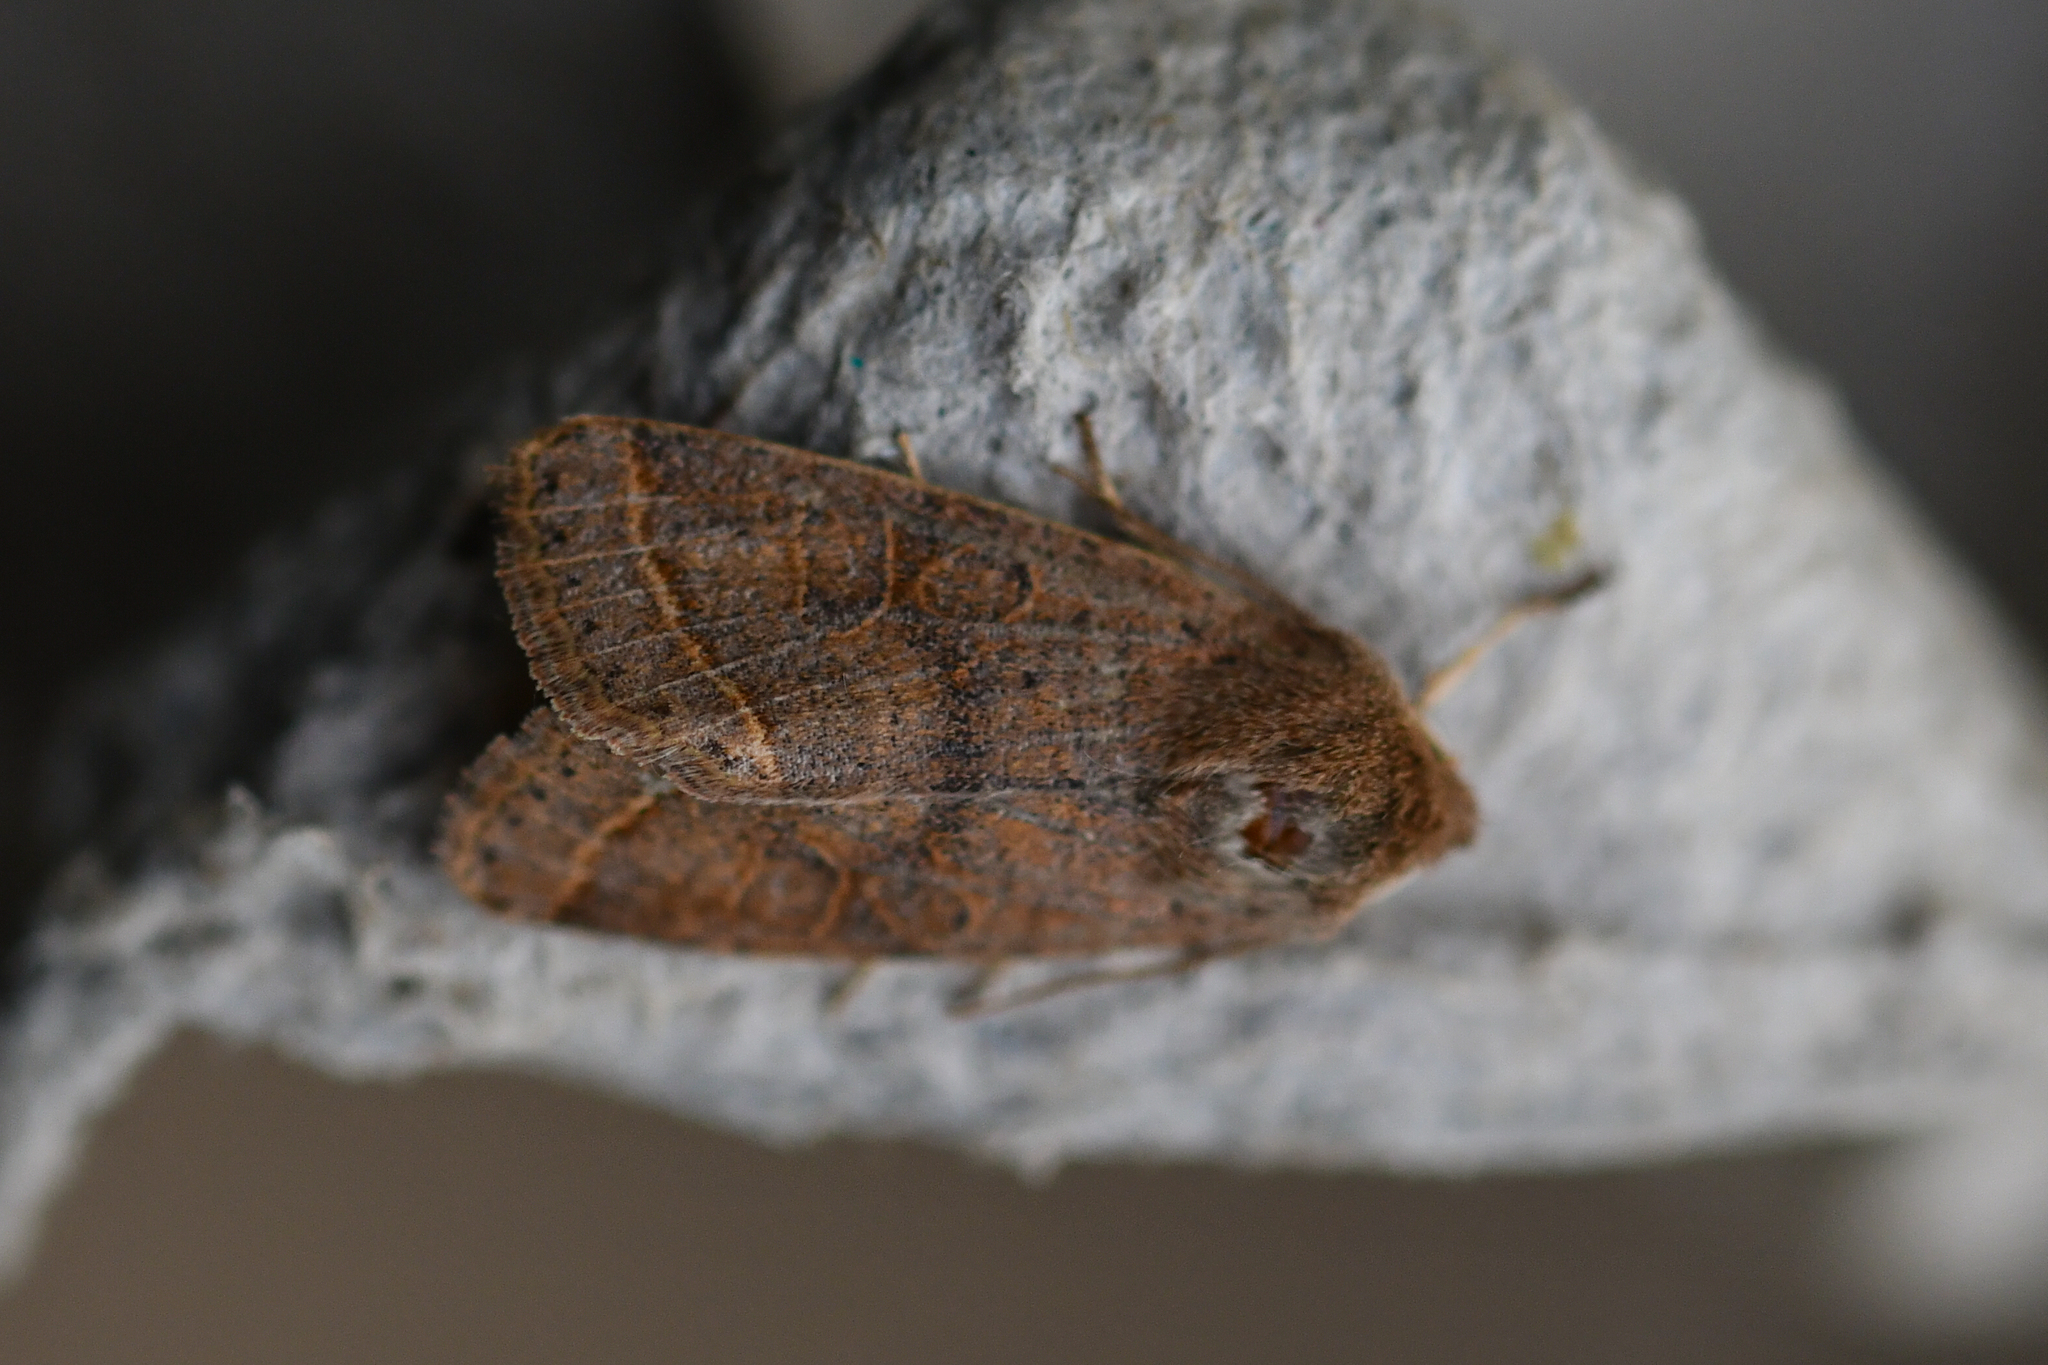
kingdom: Animalia
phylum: Arthropoda
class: Insecta
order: Lepidoptera
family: Noctuidae
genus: Orthosia
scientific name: Orthosia cerasi
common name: Common quaker
